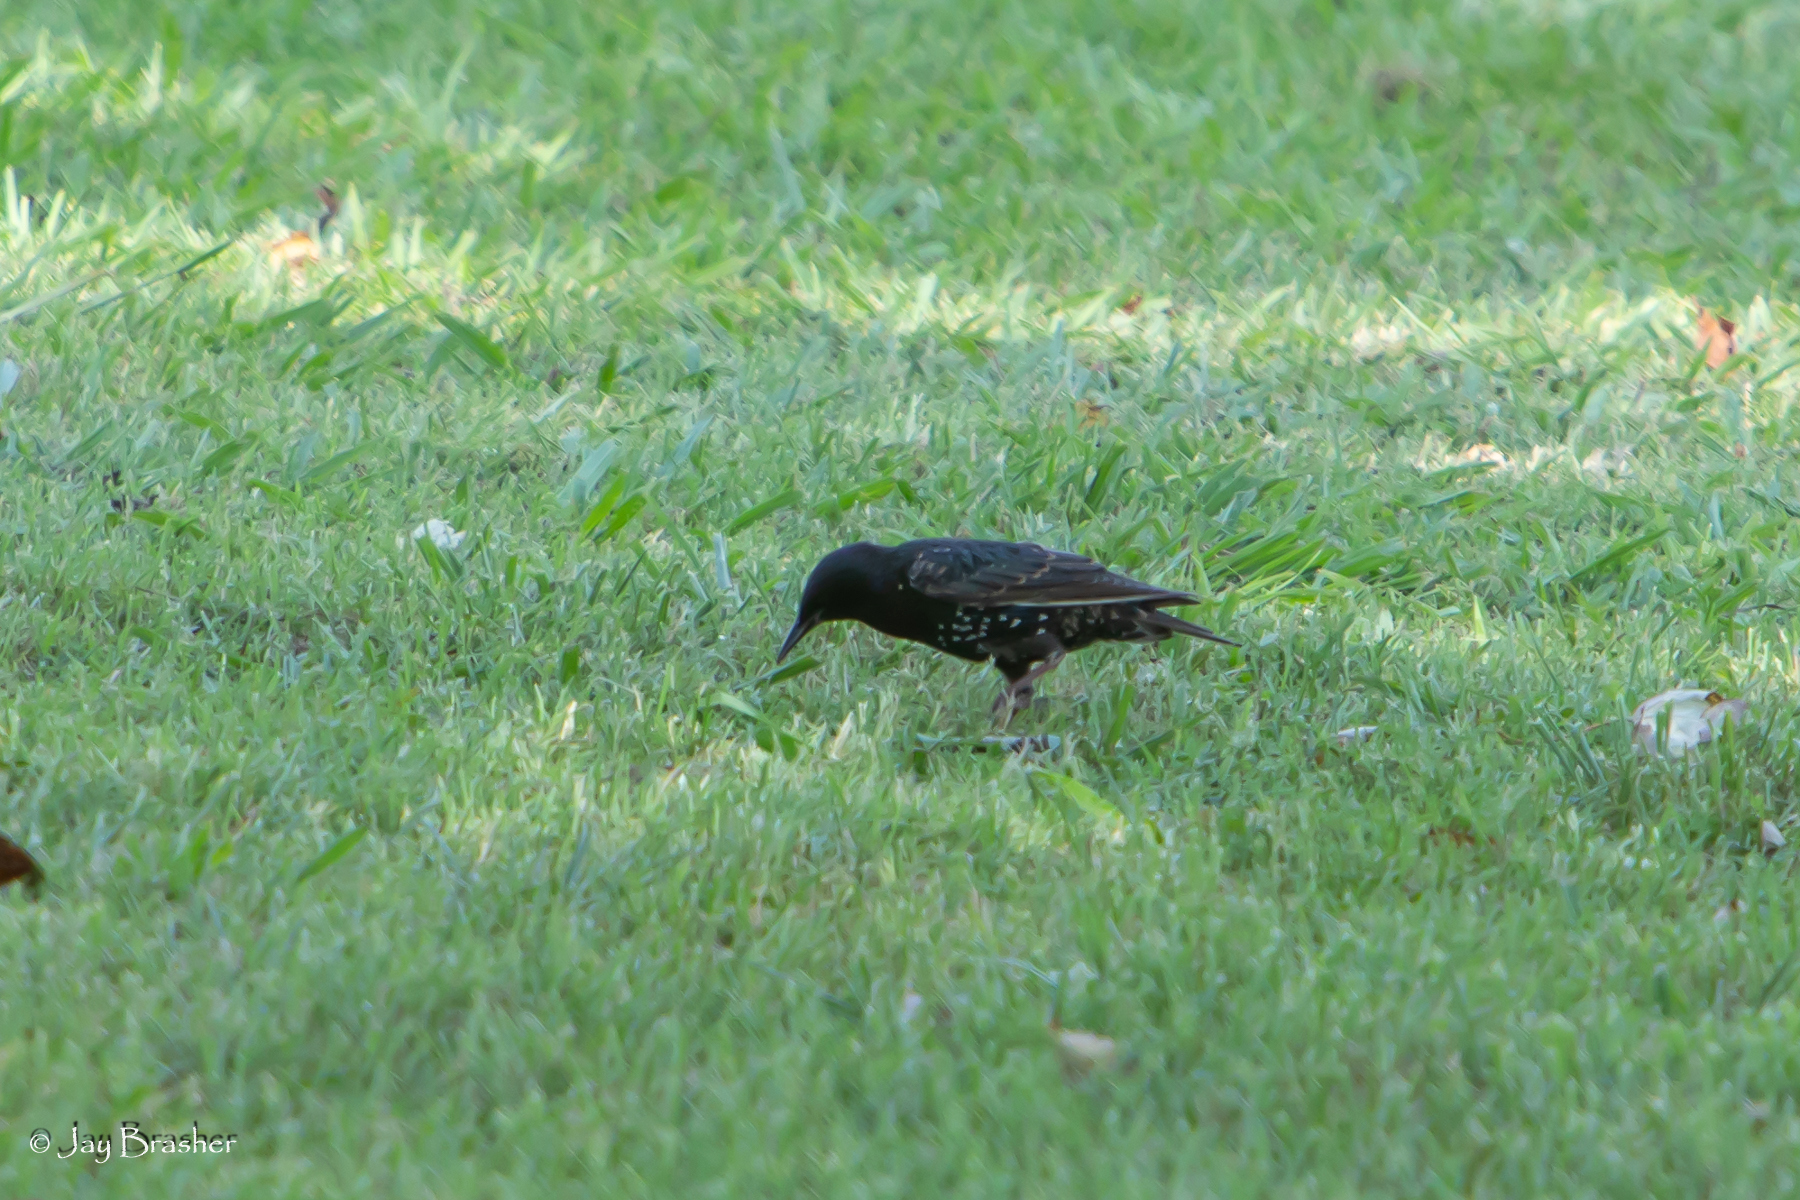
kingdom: Animalia
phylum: Chordata
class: Aves
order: Passeriformes
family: Sturnidae
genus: Sturnus
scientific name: Sturnus vulgaris
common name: Common starling
